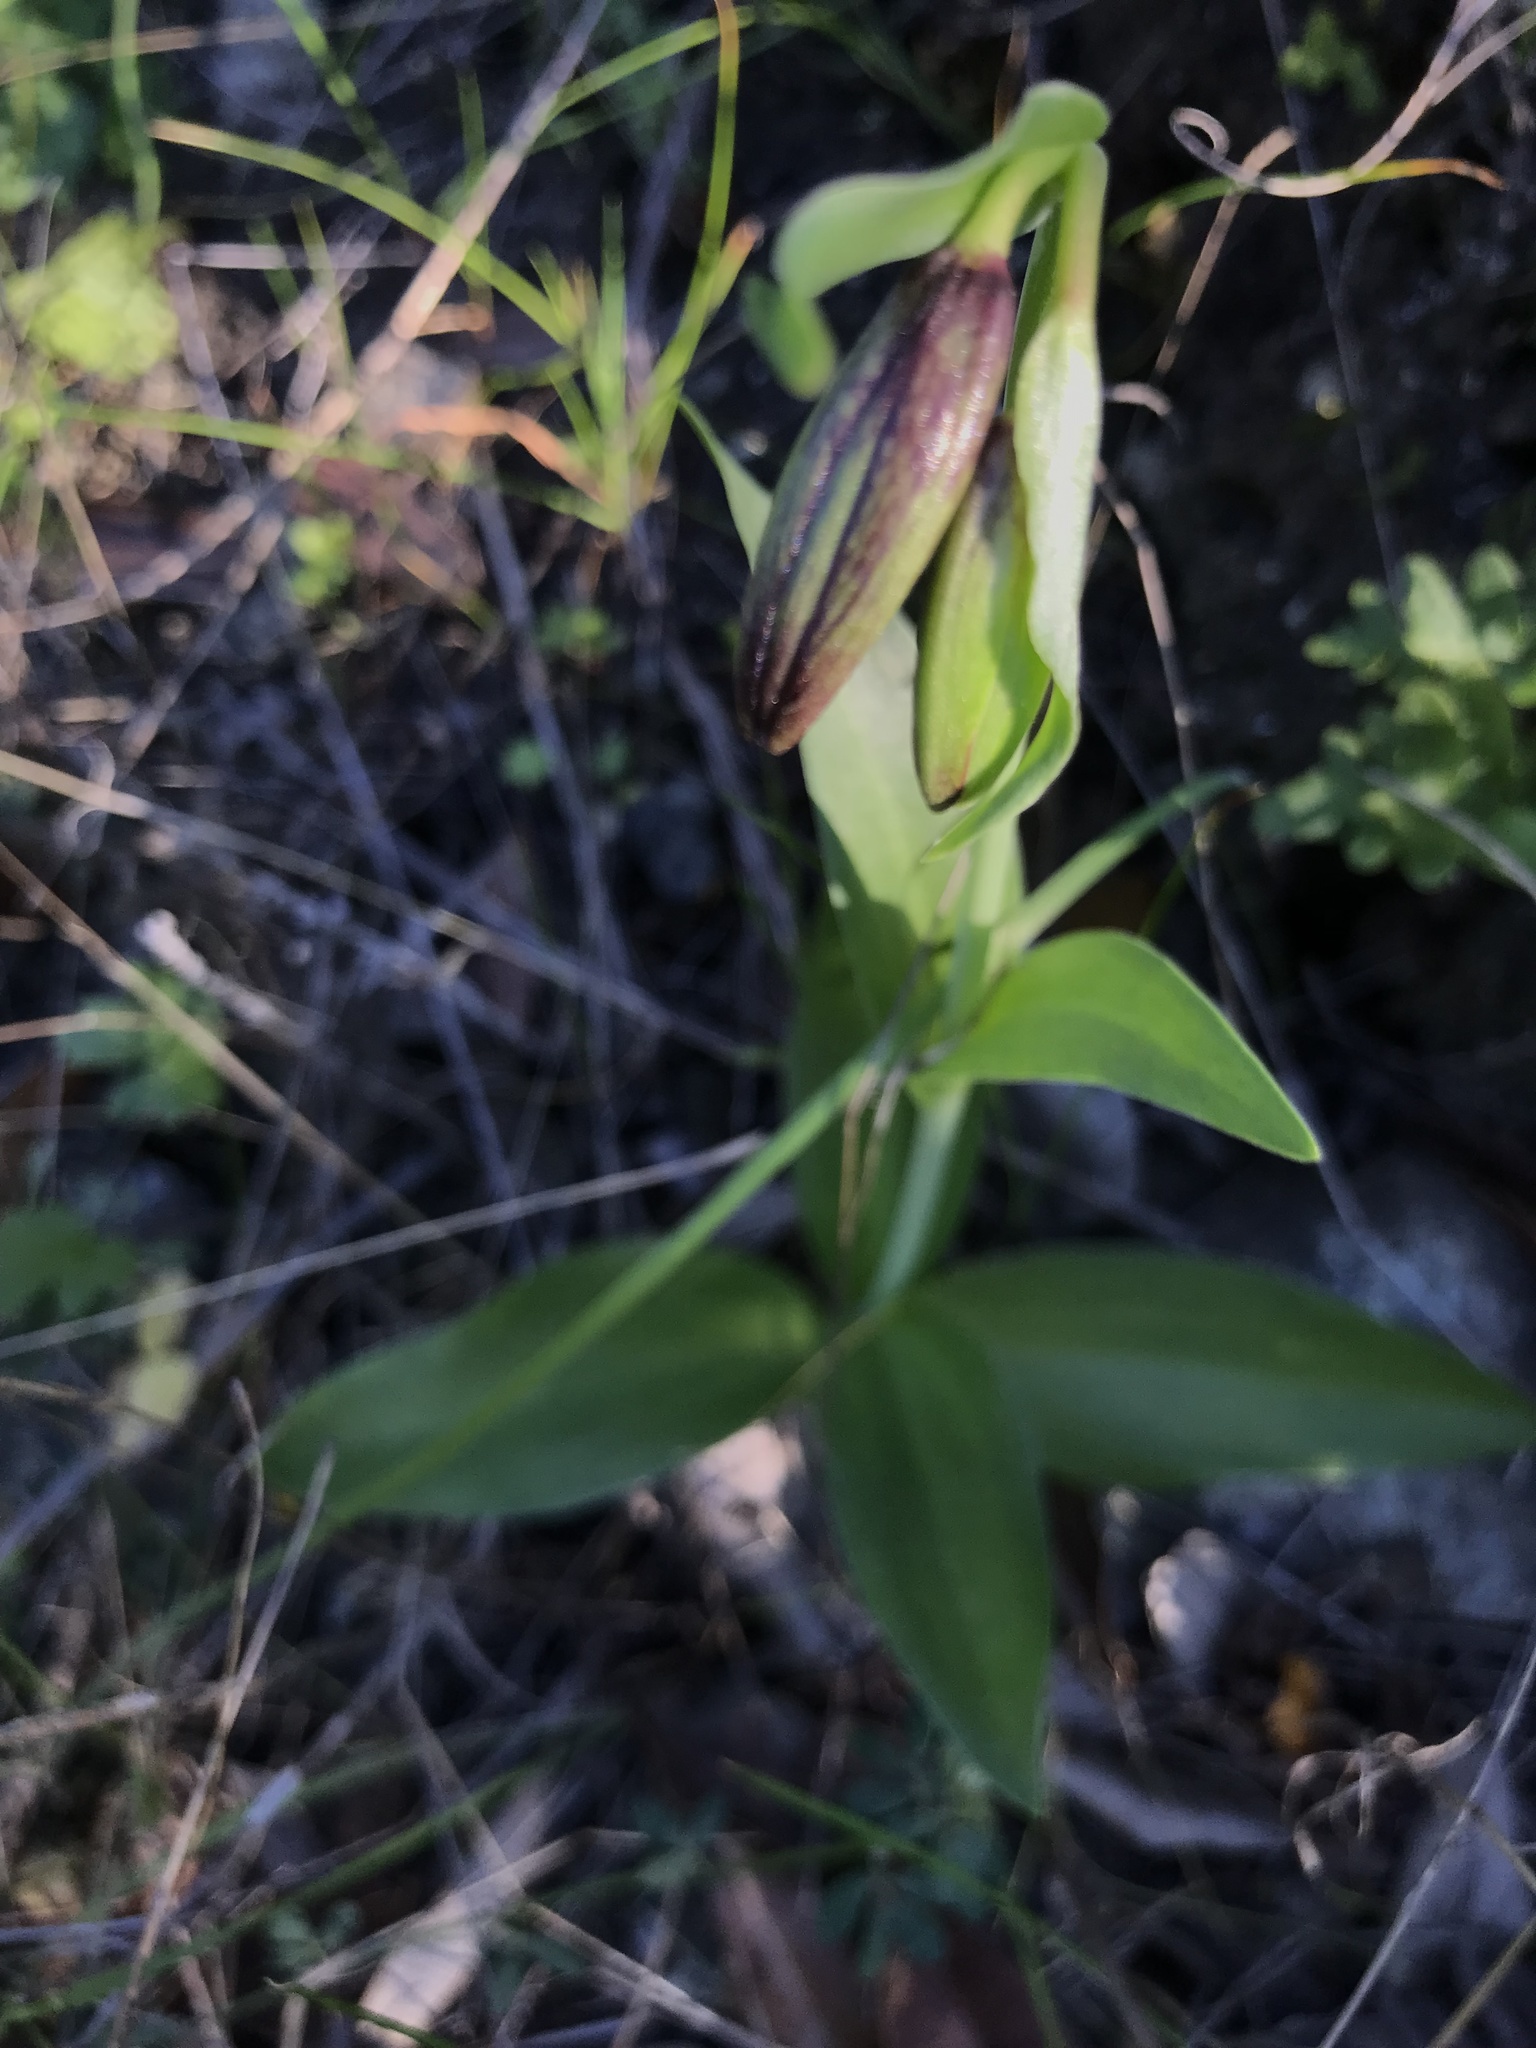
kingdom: Plantae
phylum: Tracheophyta
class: Liliopsida
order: Liliales
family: Liliaceae
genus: Fritillaria
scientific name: Fritillaria biflora
